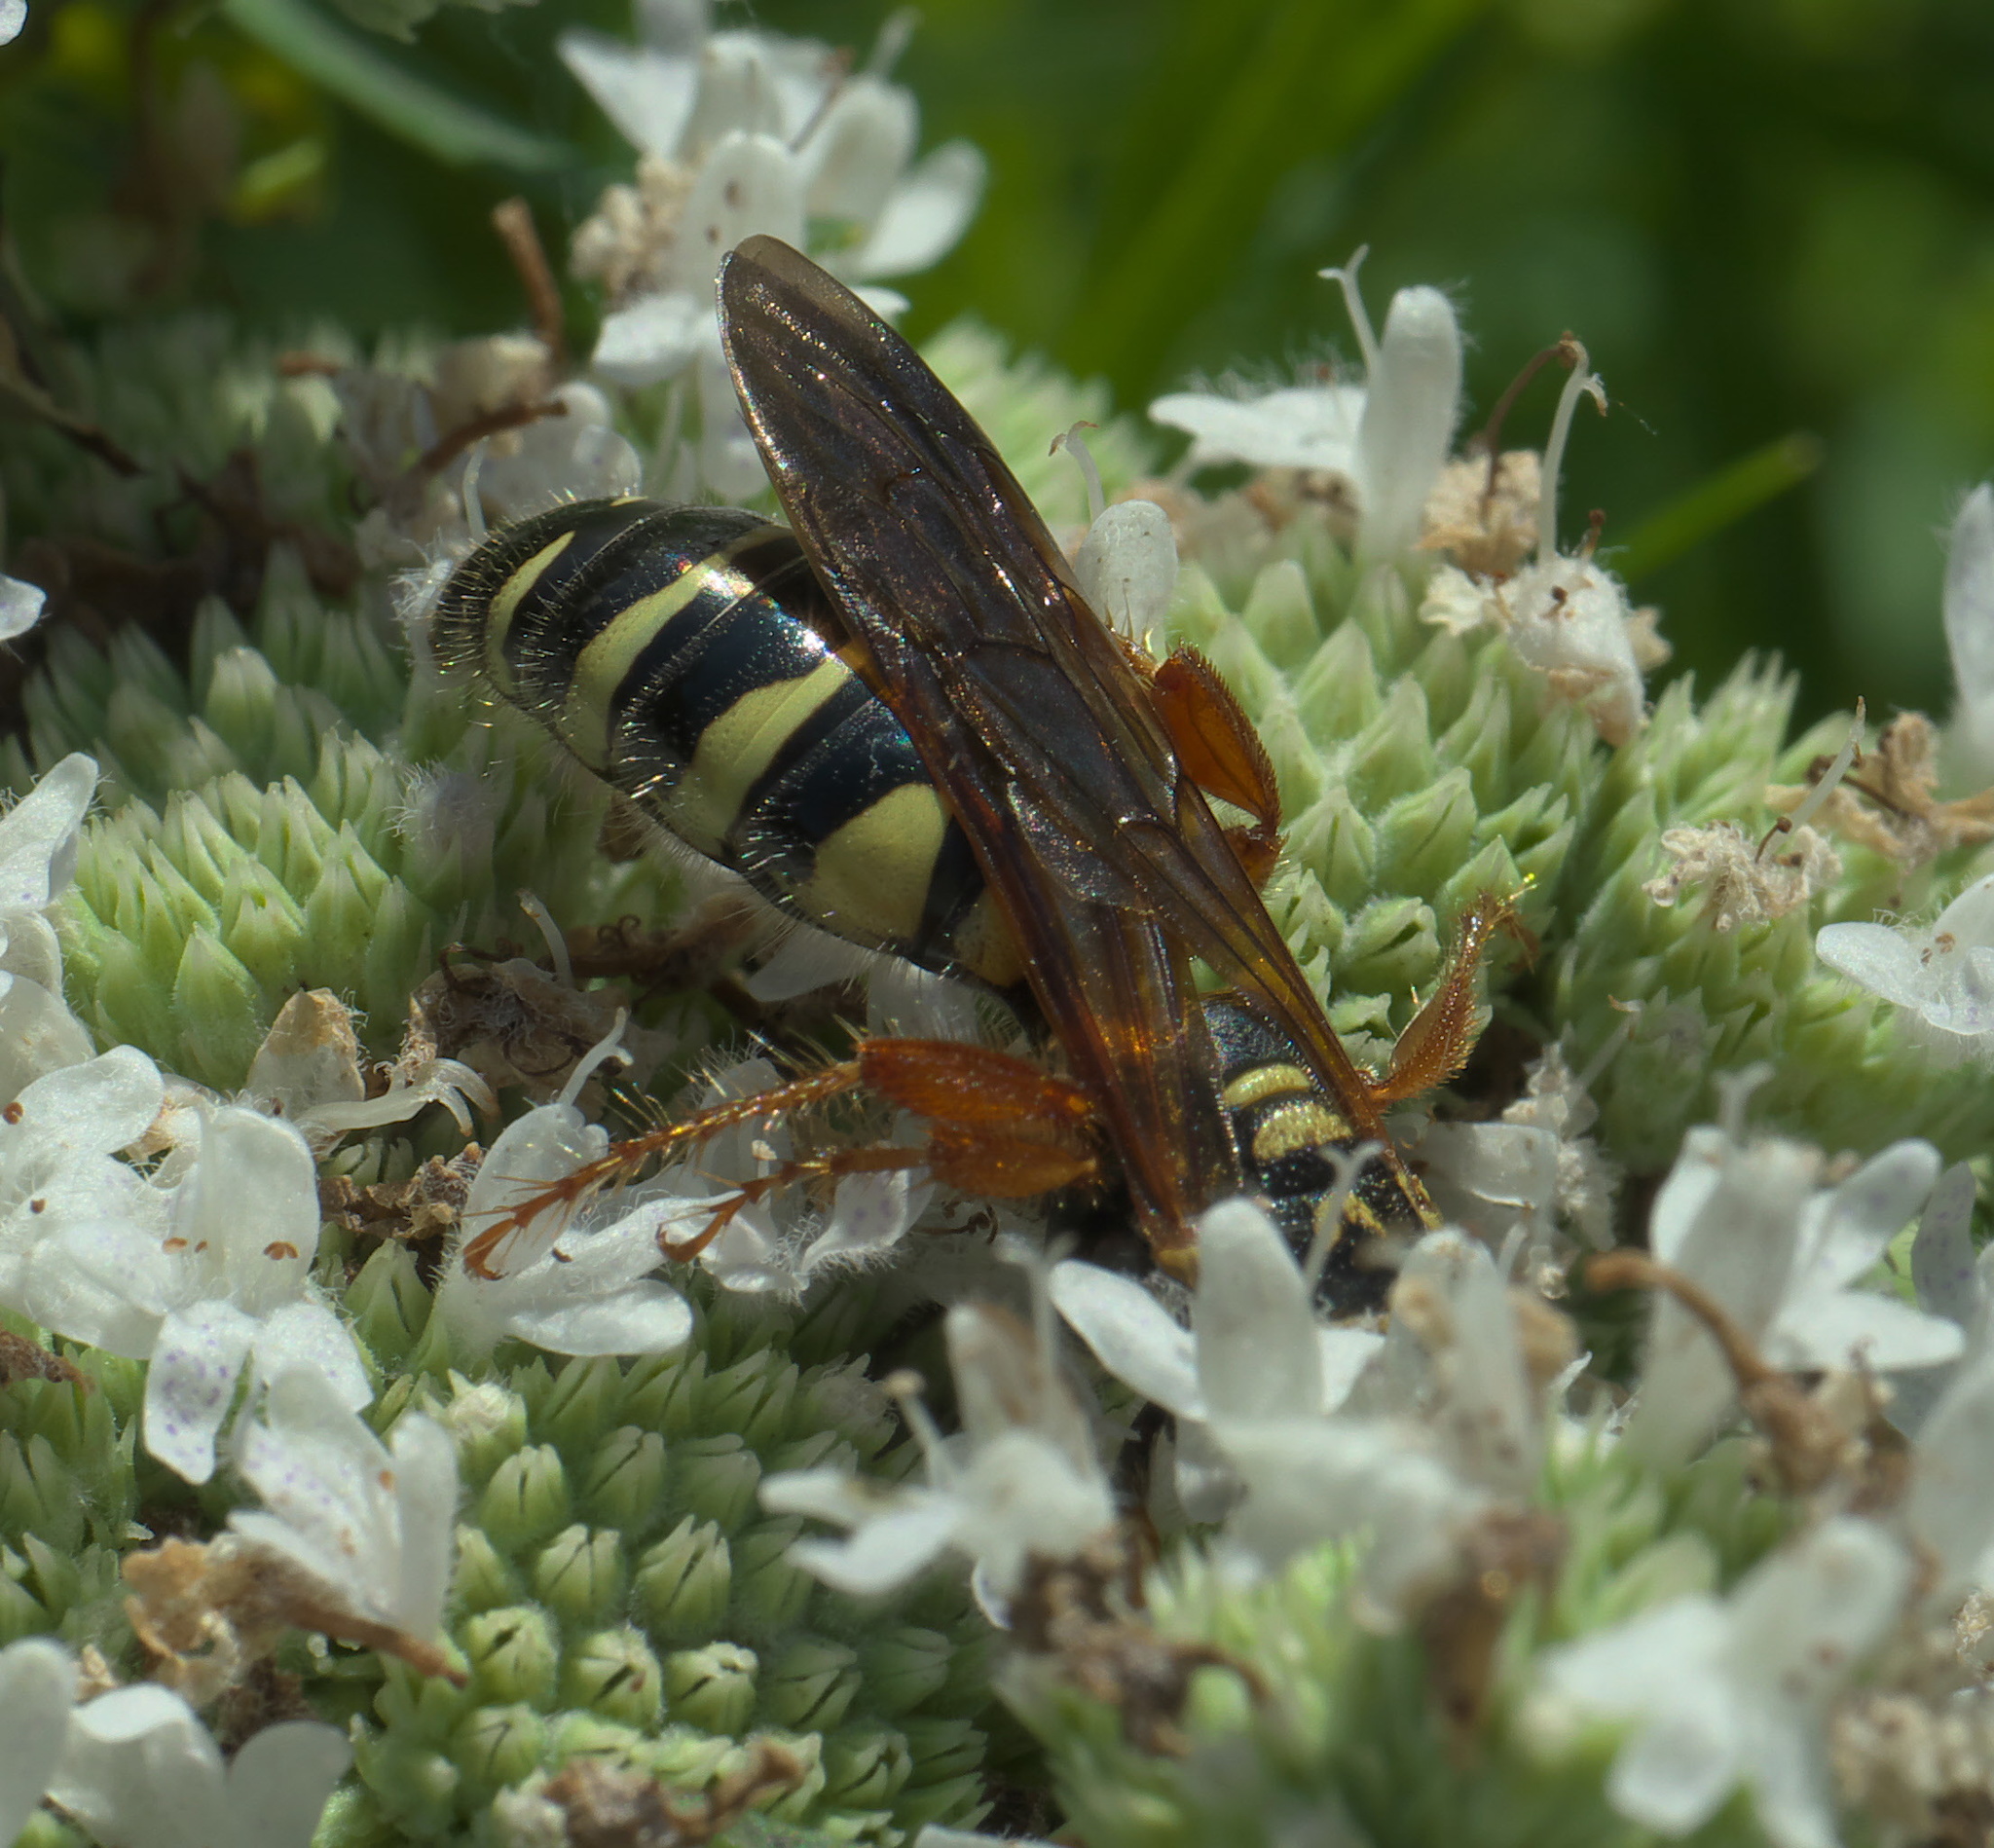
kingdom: Animalia
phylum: Arthropoda
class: Insecta
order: Hymenoptera
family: Tiphiidae
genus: Myzinum
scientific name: Myzinum quinquecinctum
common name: Five-banded thynnid wasp
